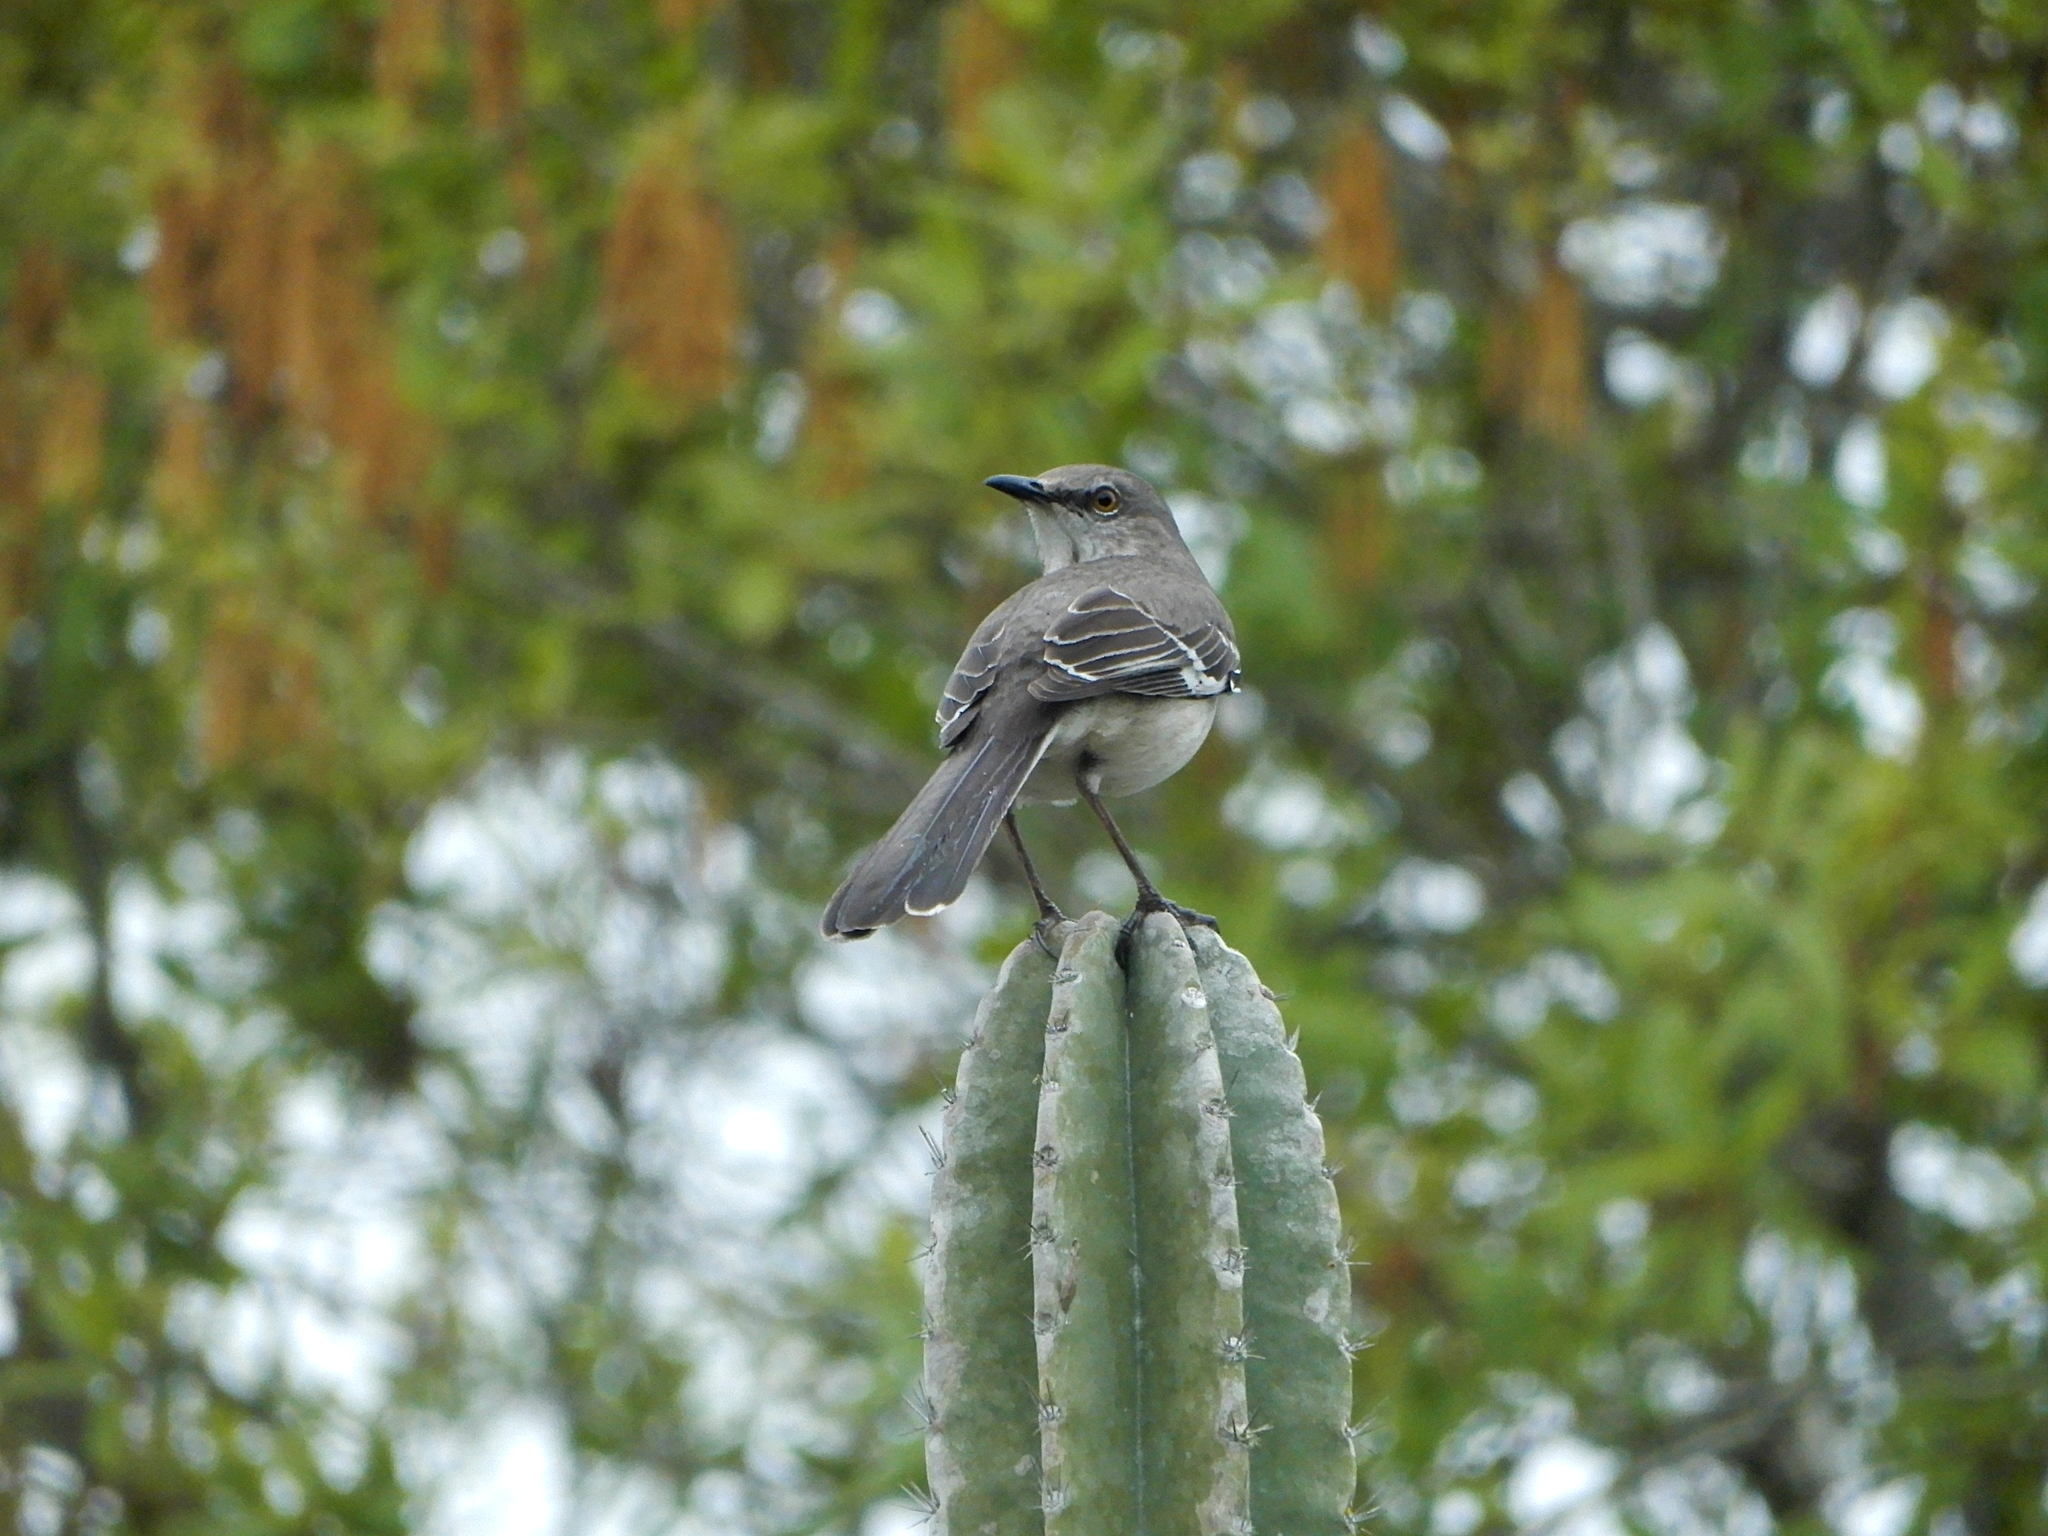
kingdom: Animalia
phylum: Chordata
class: Aves
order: Passeriformes
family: Mimidae
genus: Mimus
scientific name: Mimus polyglottos
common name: Northern mockingbird
